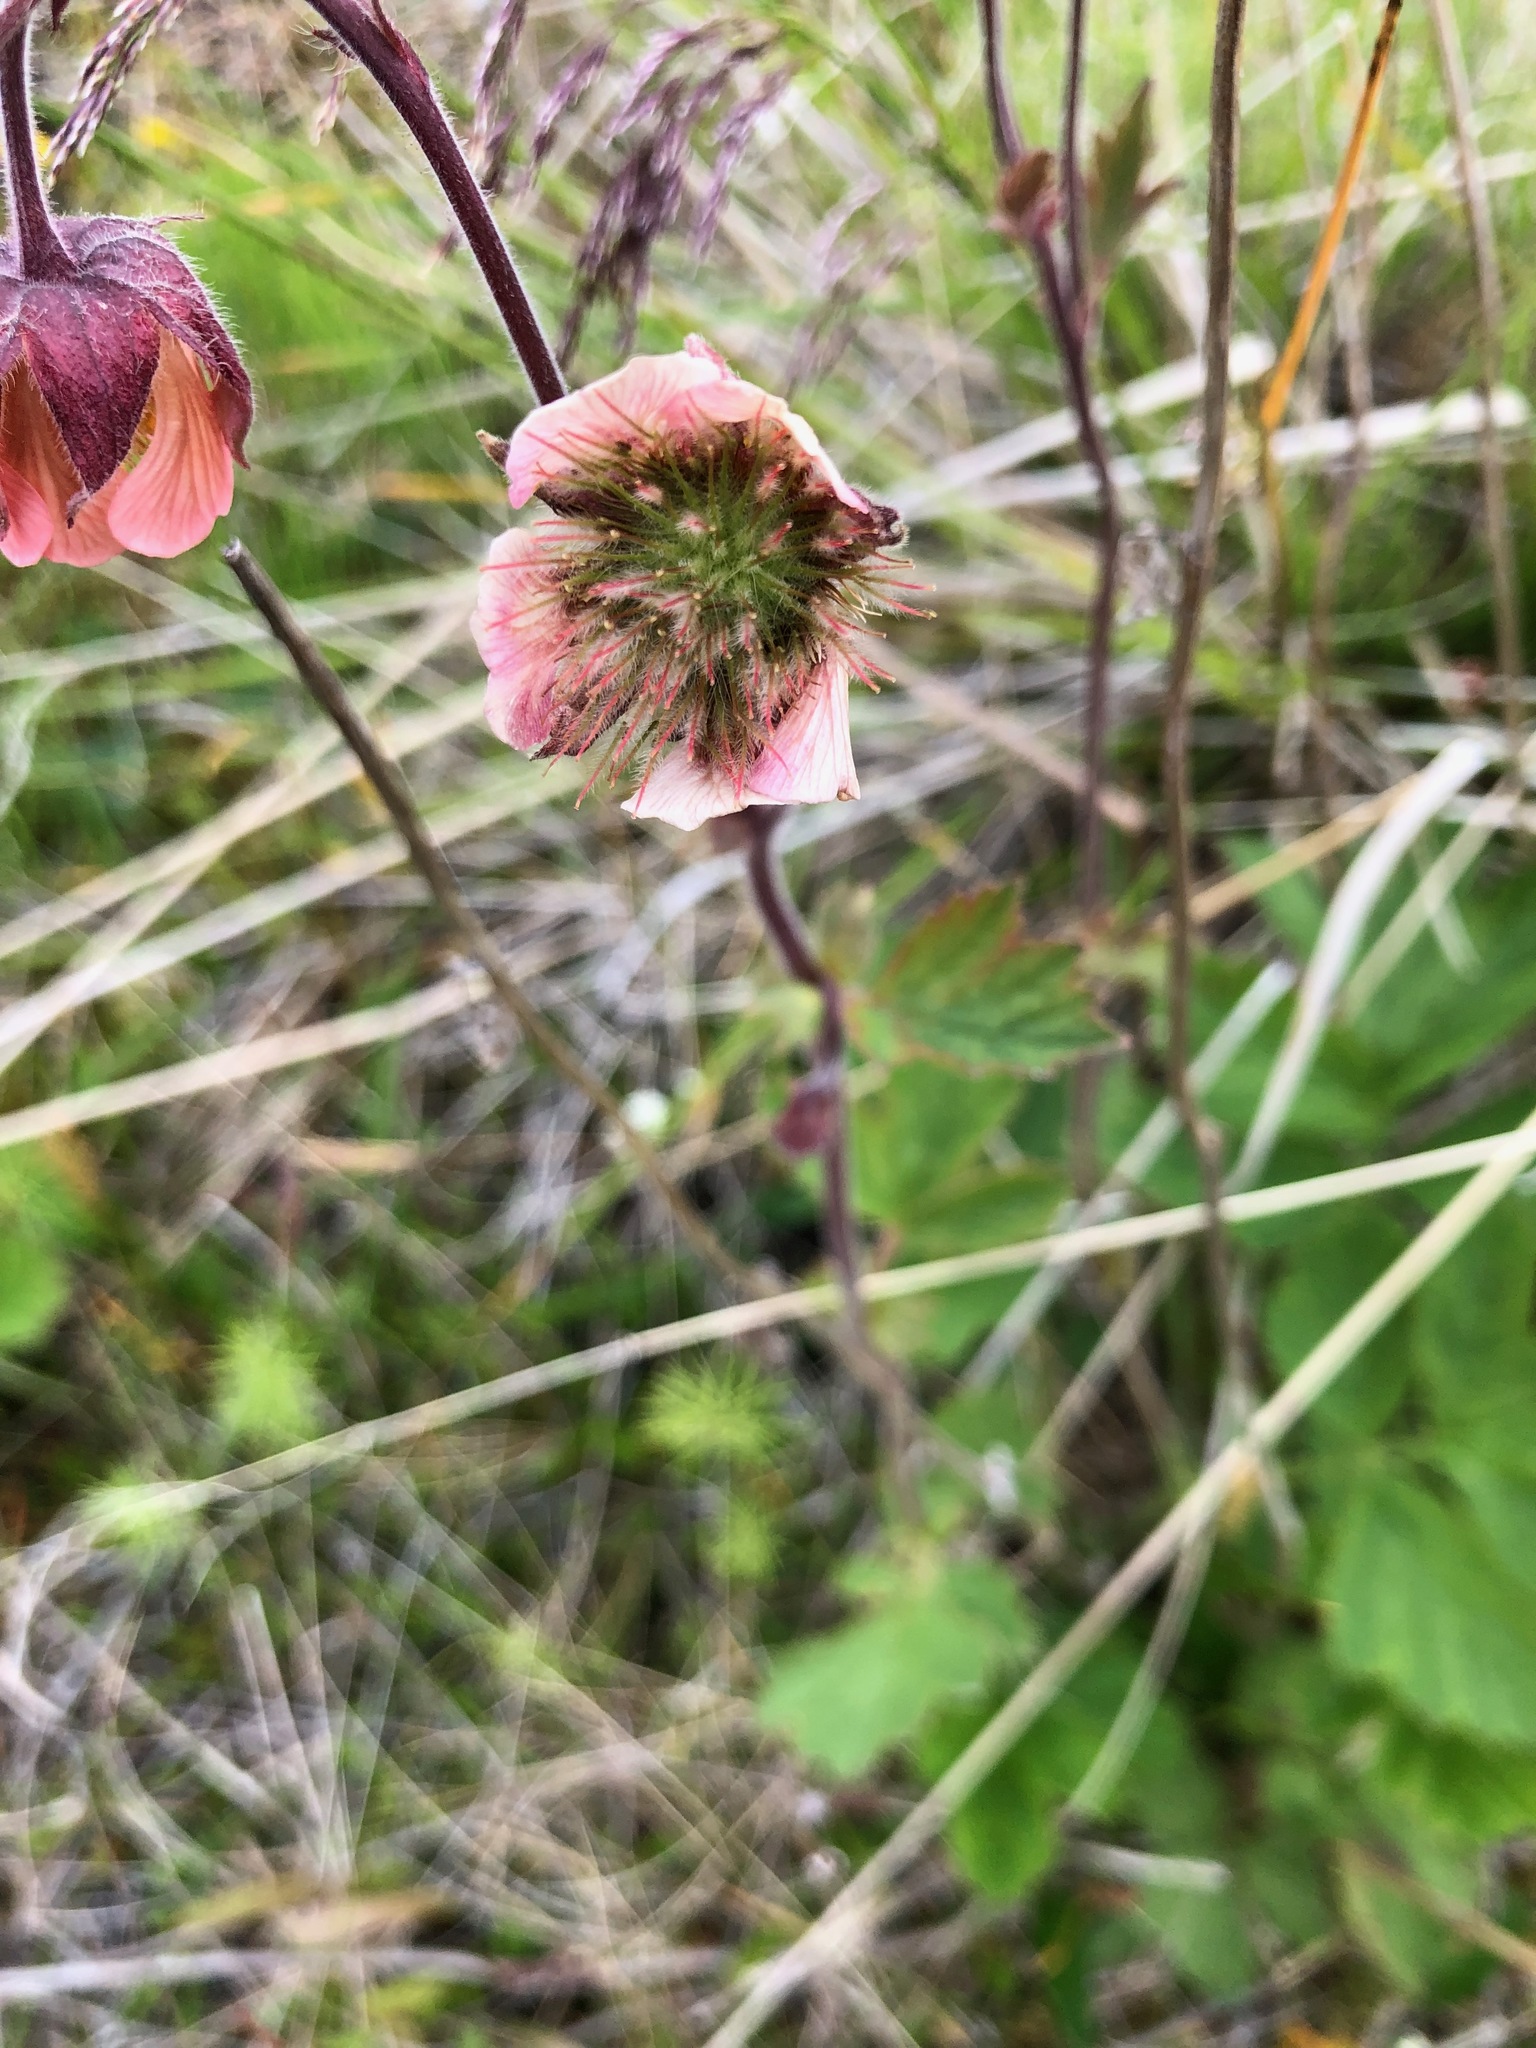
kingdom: Plantae
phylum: Tracheophyta
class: Magnoliopsida
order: Rosales
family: Rosaceae
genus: Geum
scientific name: Geum rivale
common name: Water avens
